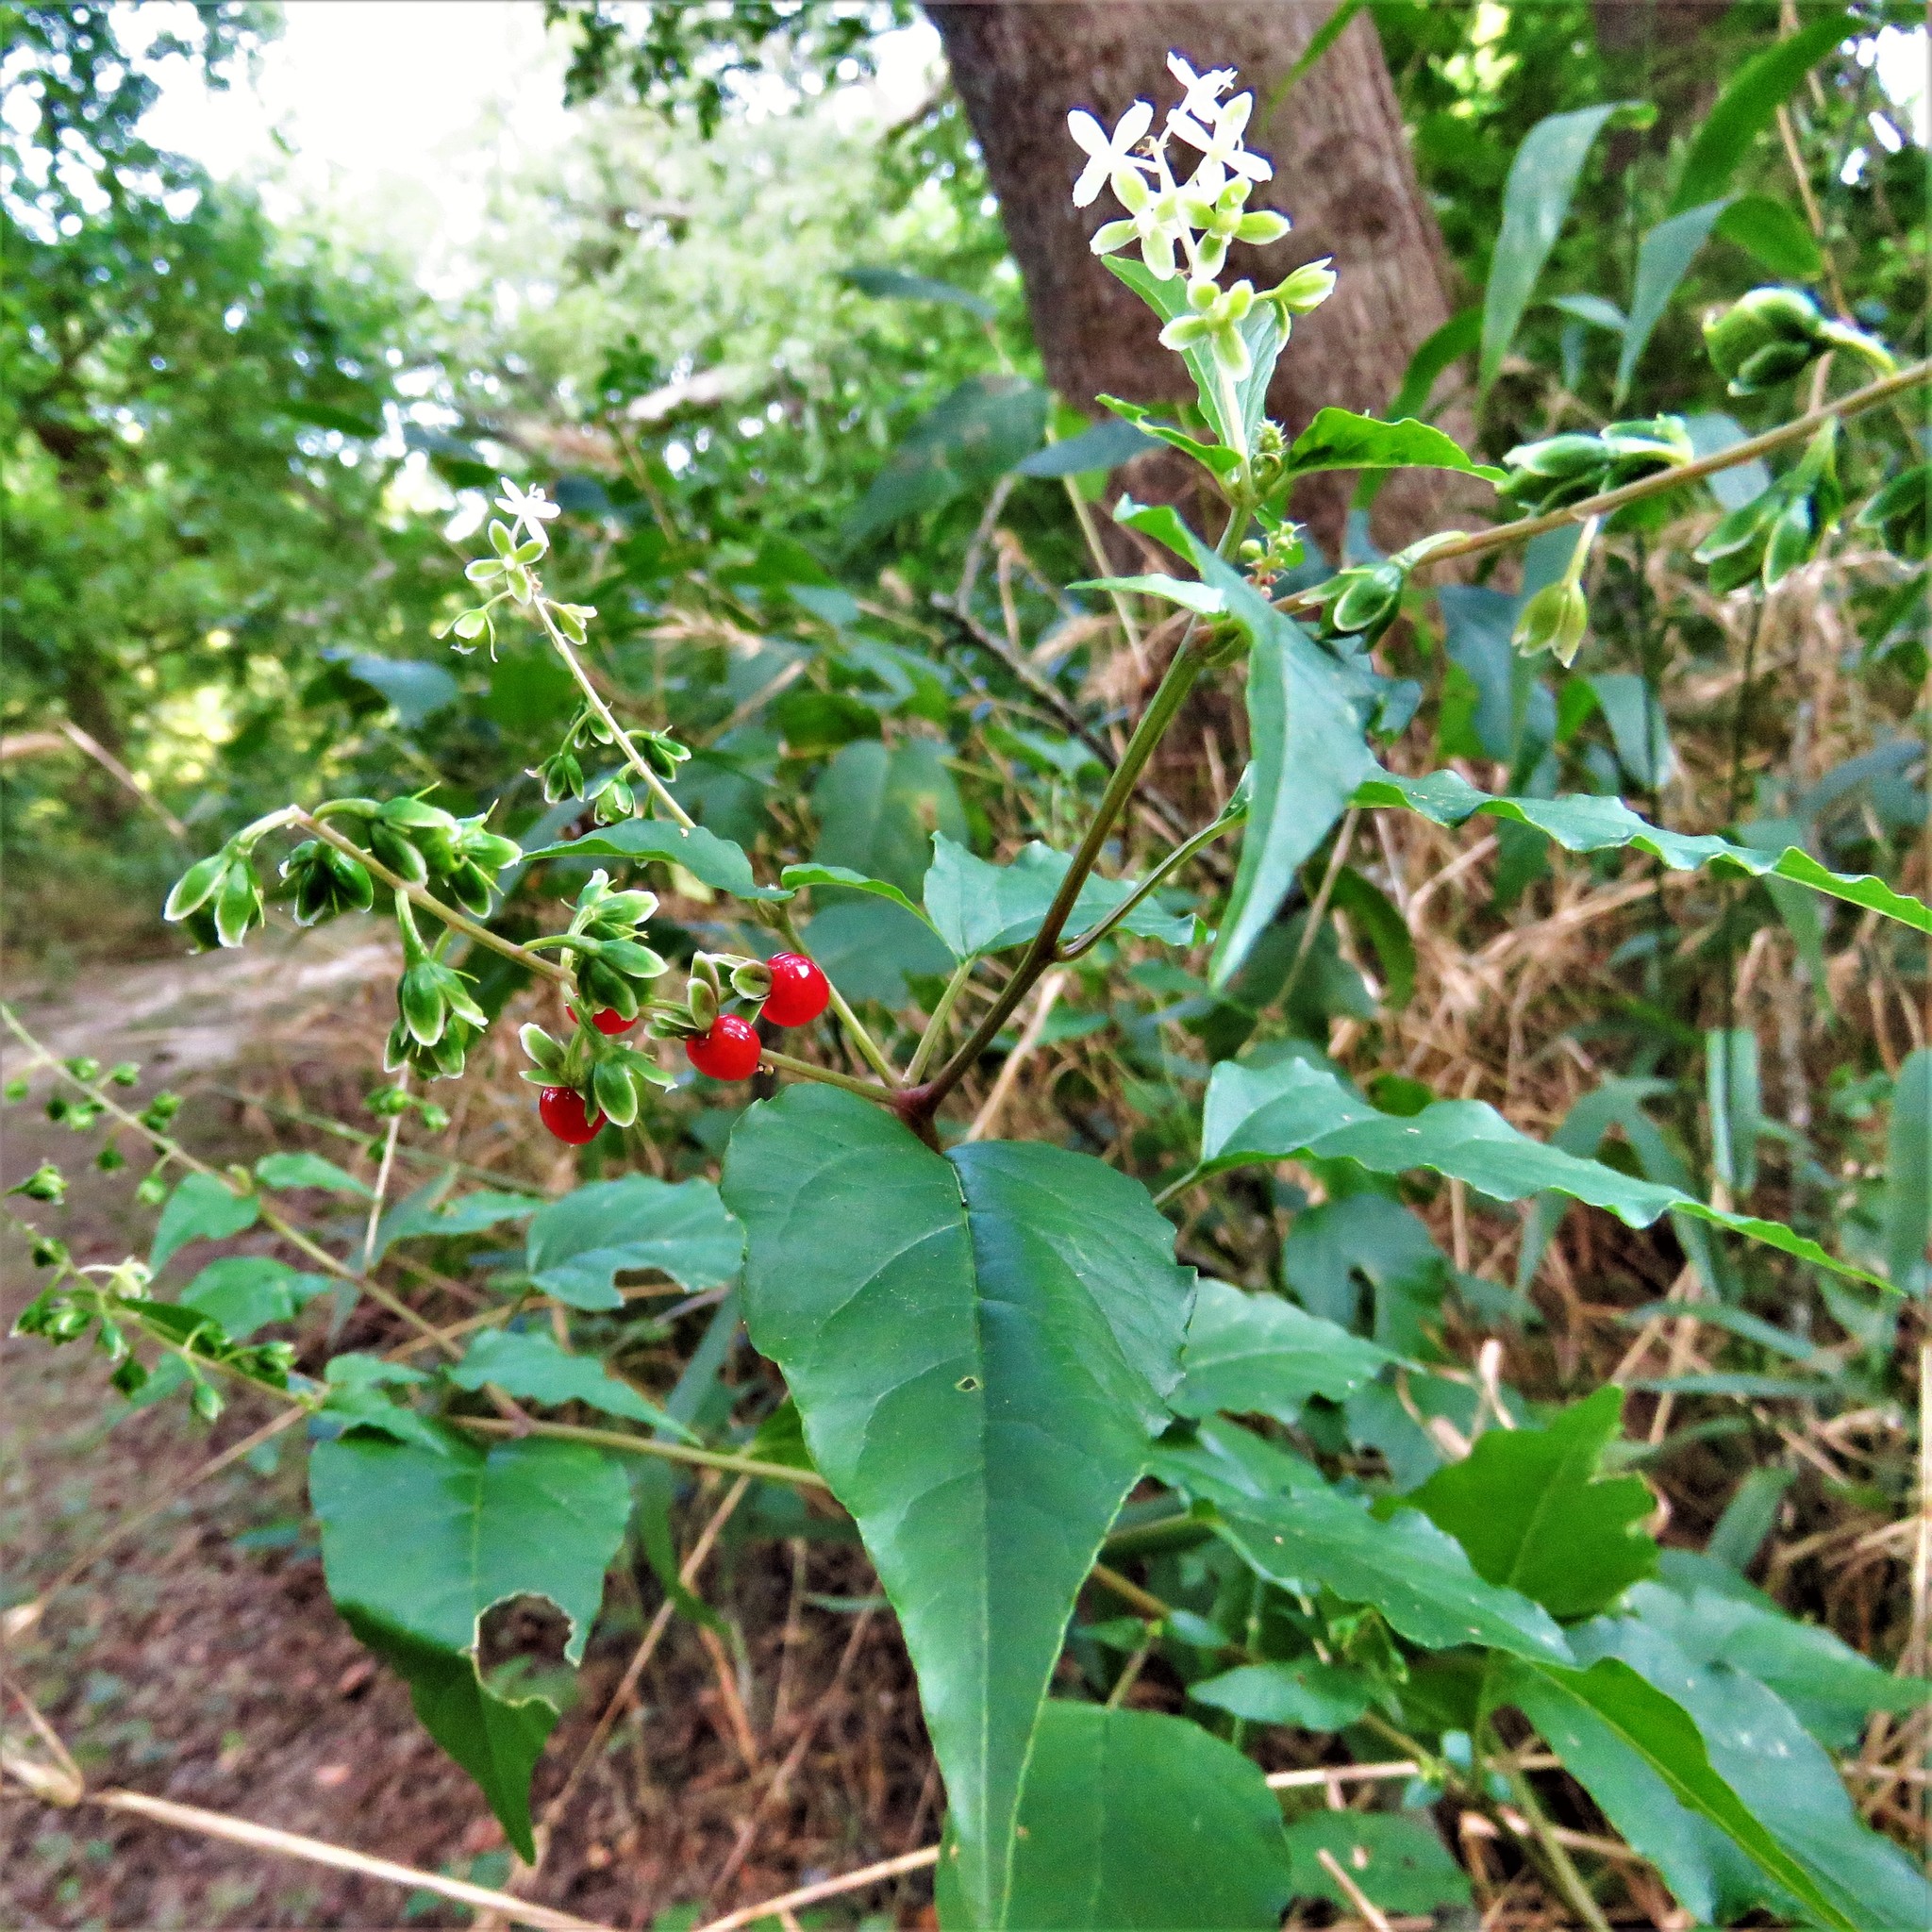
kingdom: Plantae
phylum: Tracheophyta
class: Magnoliopsida
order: Caryophyllales
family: Phytolaccaceae
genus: Rivina
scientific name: Rivina humilis
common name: Rougeplant
